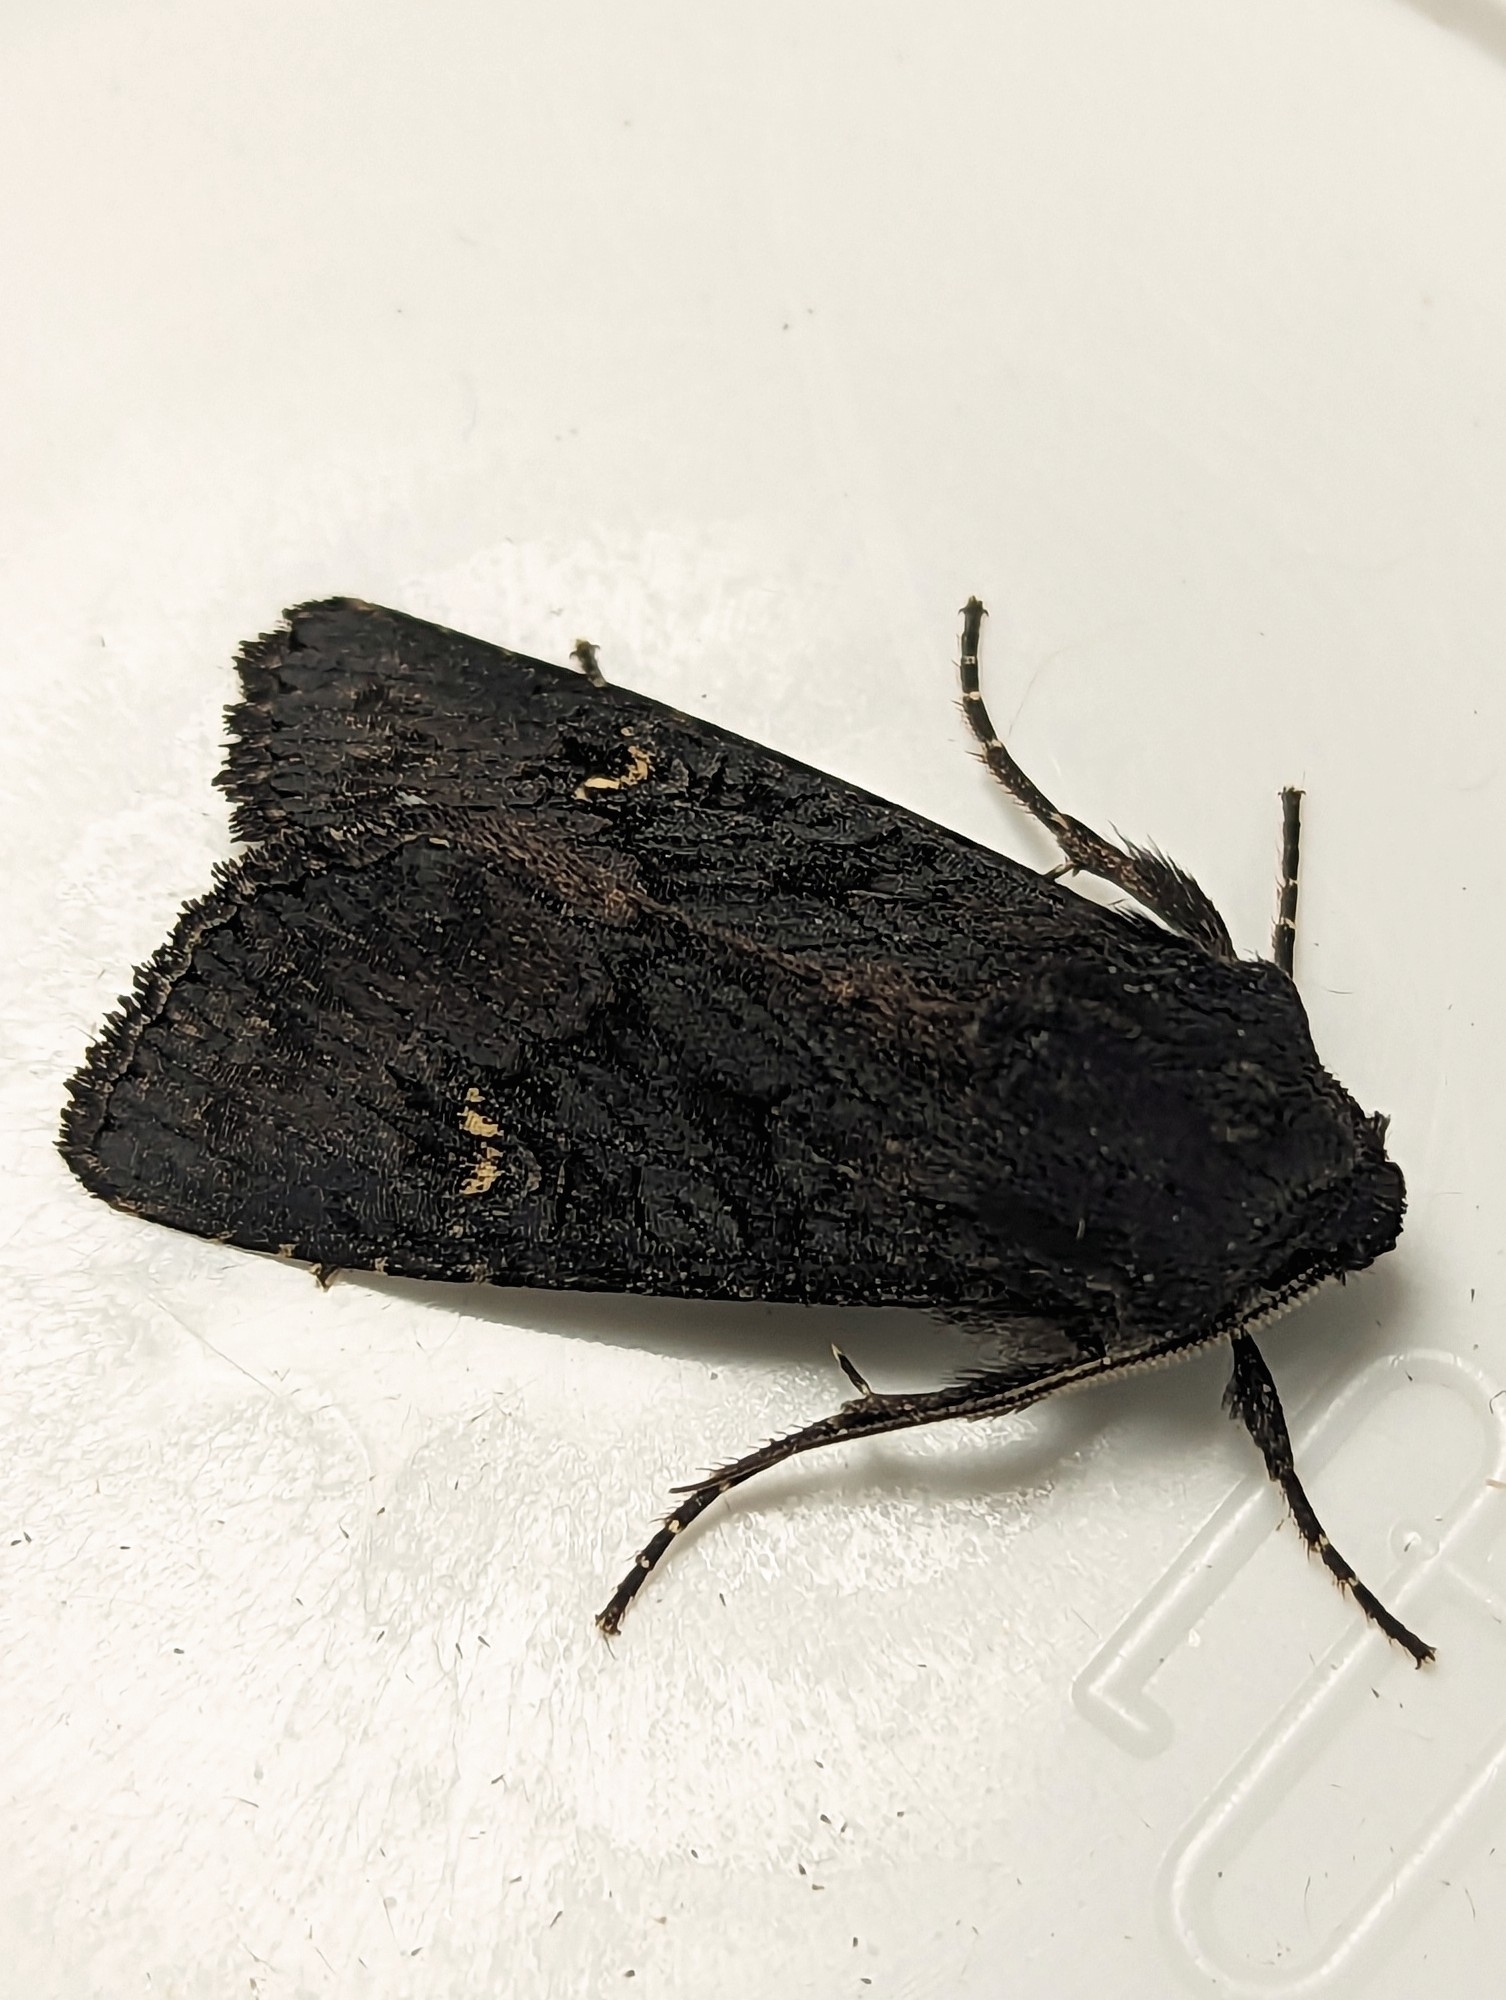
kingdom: Animalia
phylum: Arthropoda
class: Insecta
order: Lepidoptera
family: Noctuidae
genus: Aporophyla
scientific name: Aporophyla nigra
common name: Black rustic
